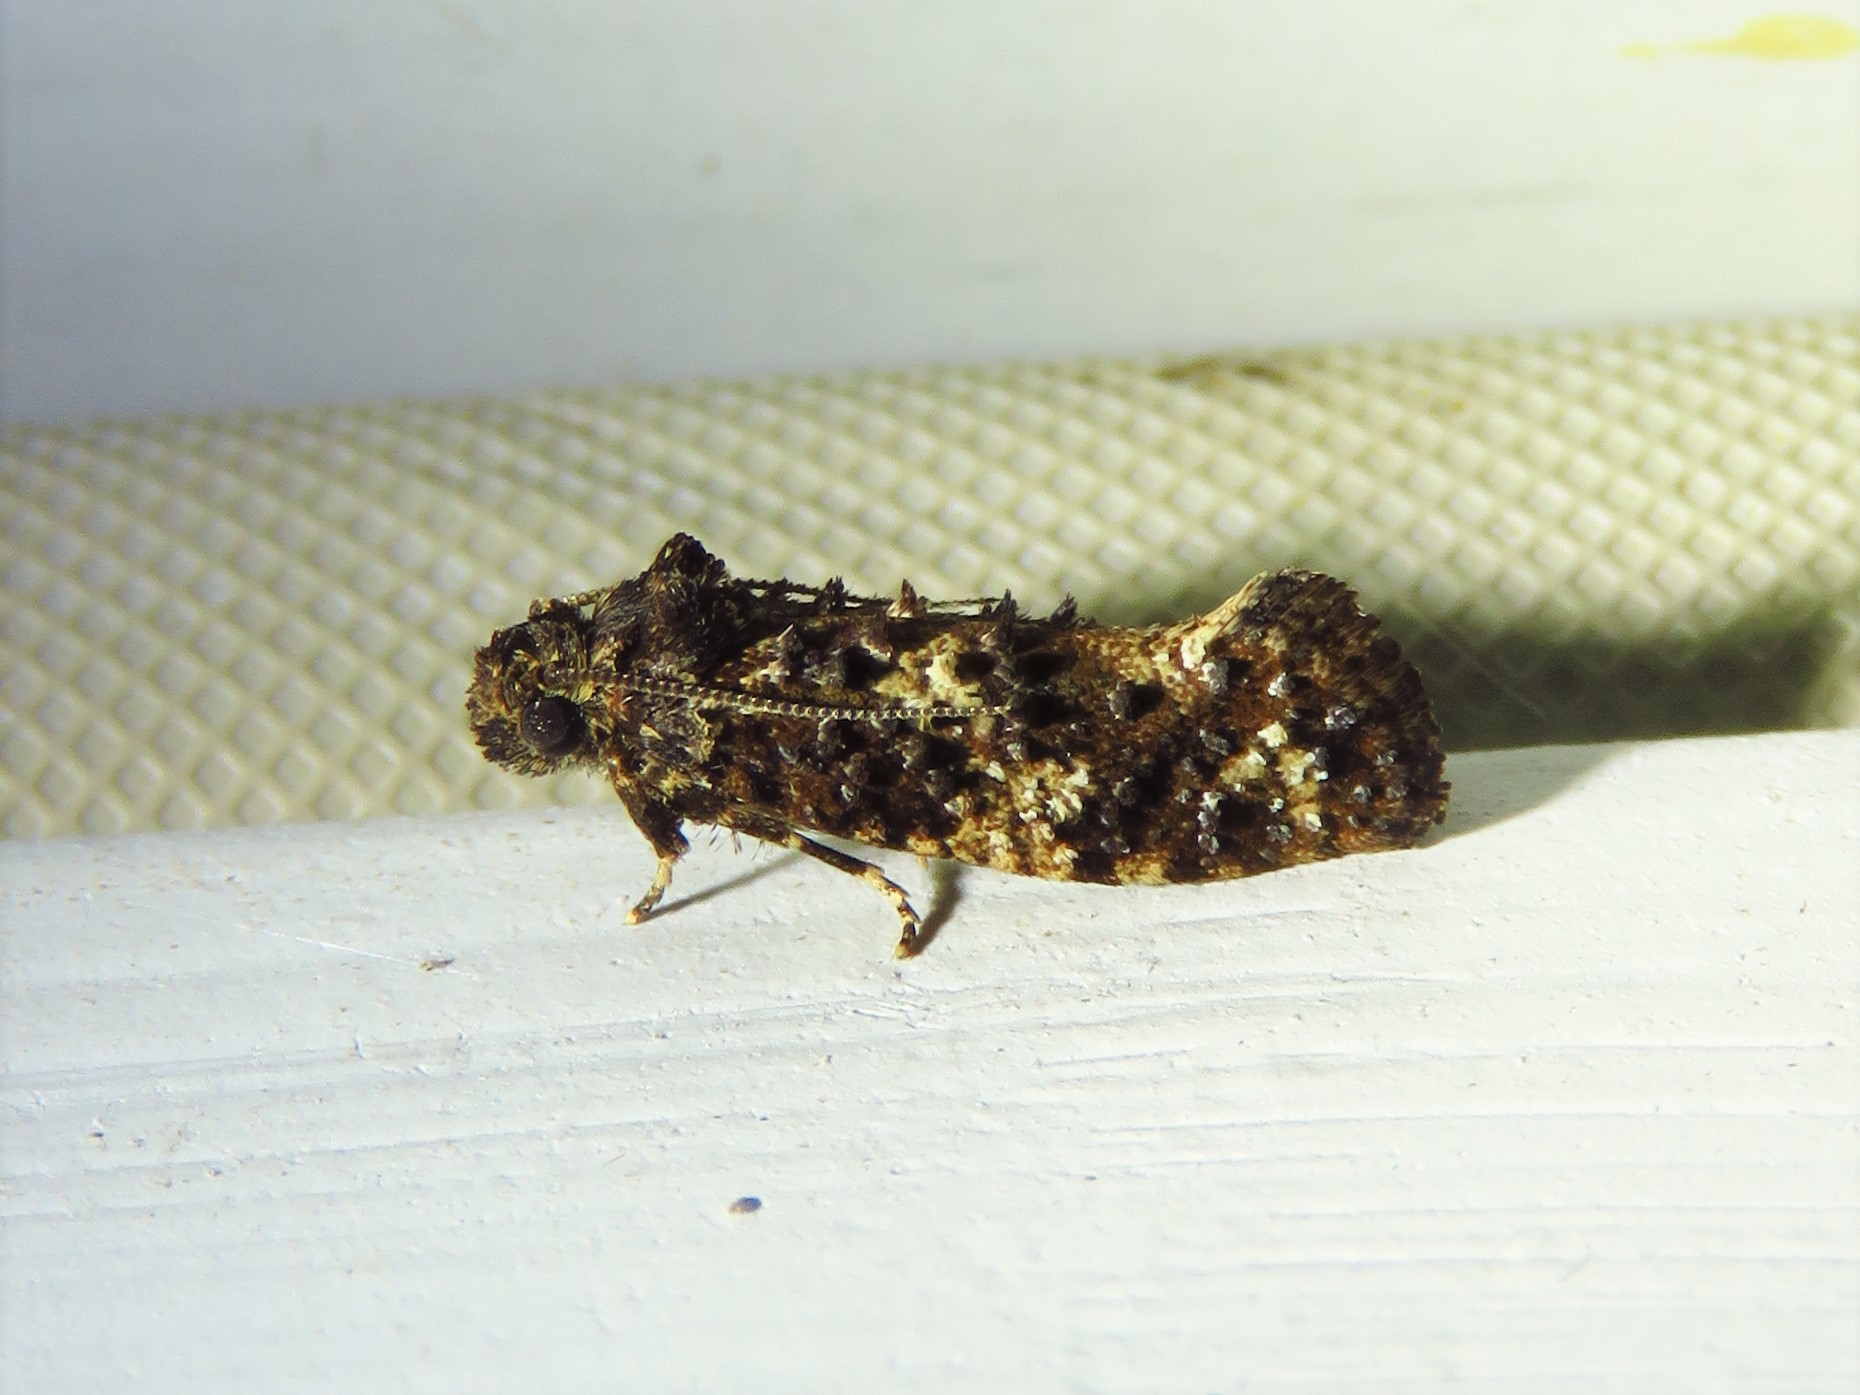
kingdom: Animalia
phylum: Arthropoda
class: Insecta
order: Lepidoptera
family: Tineidae
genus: Acrolophus
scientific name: Acrolophus cressoni
